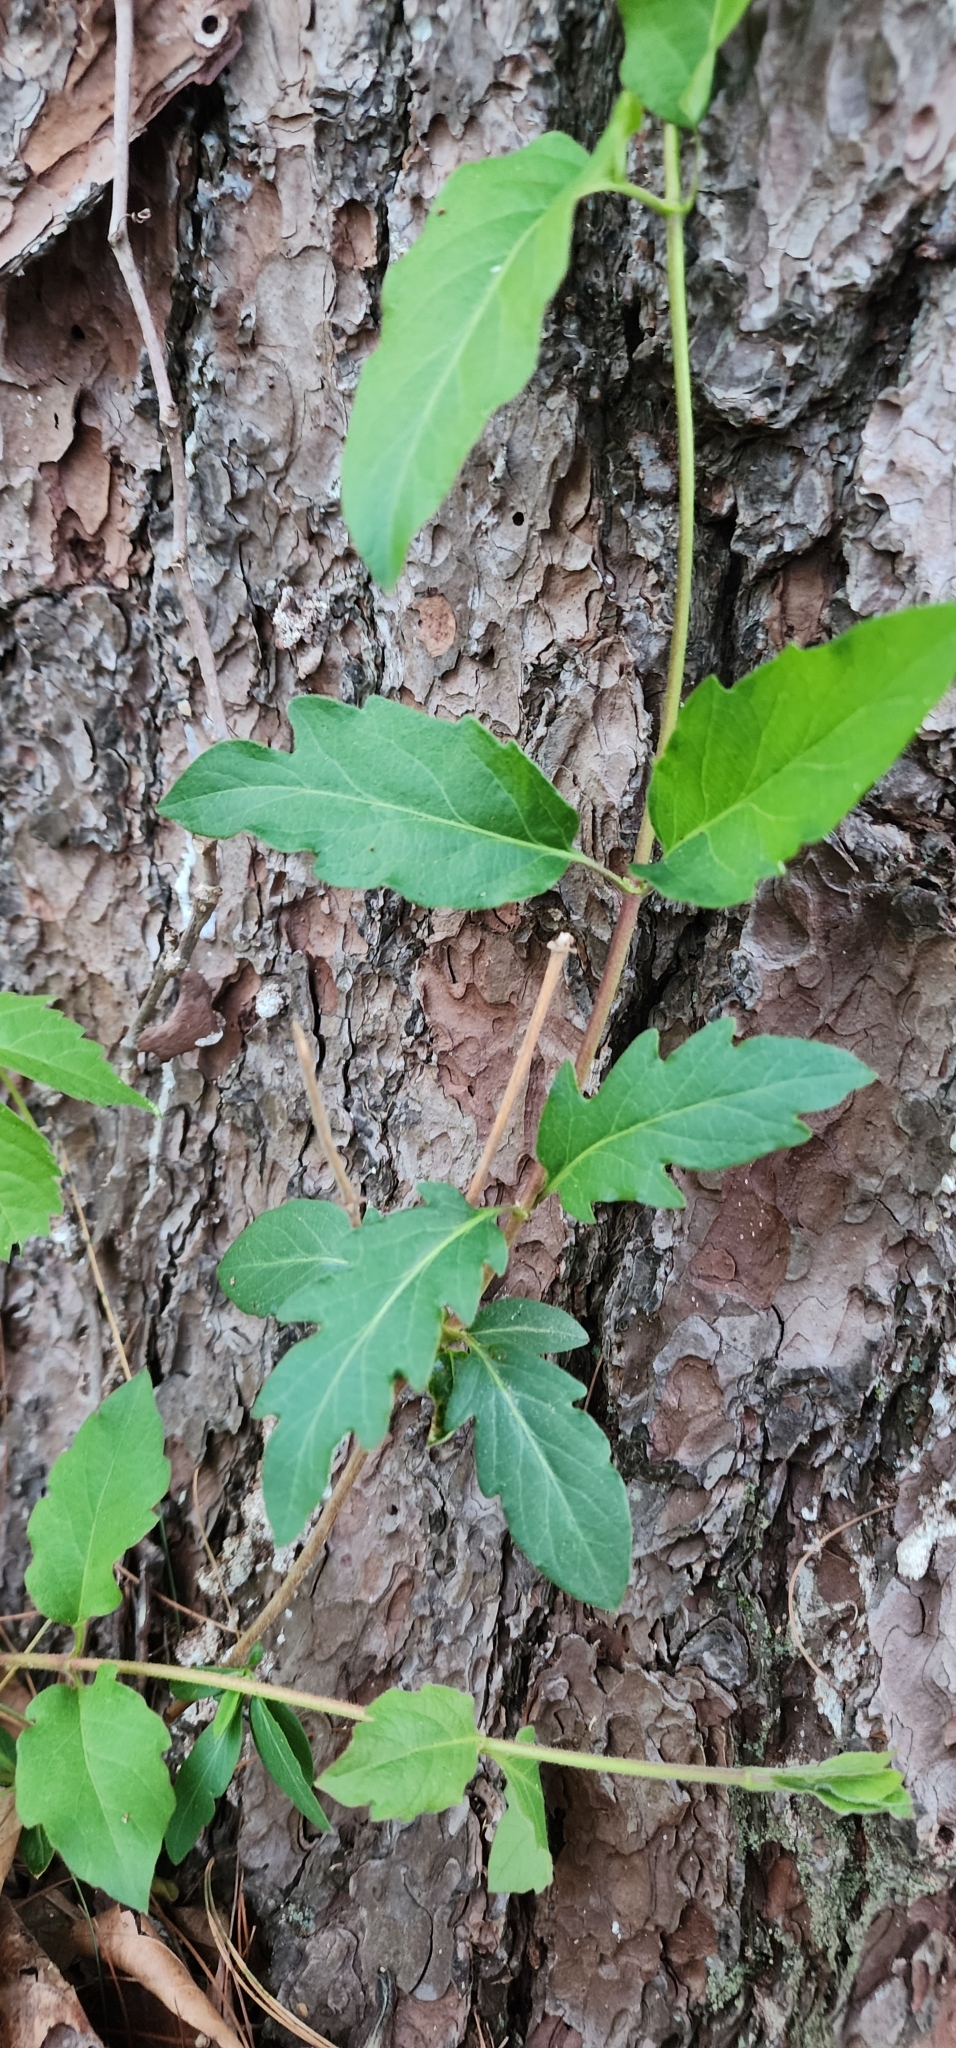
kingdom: Plantae
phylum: Tracheophyta
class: Magnoliopsida
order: Dipsacales
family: Caprifoliaceae
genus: Lonicera
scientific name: Lonicera japonica
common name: Japanese honeysuckle
